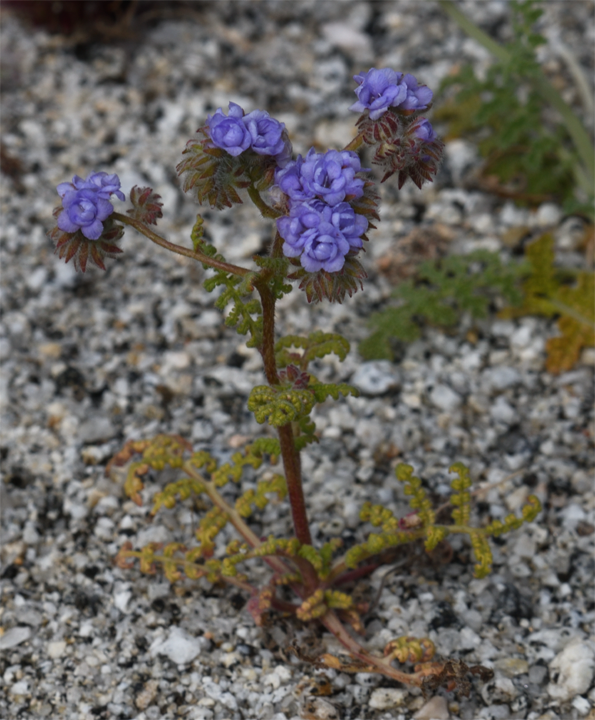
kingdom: Plantae
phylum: Tracheophyta
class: Magnoliopsida
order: Boraginales
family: Hydrophyllaceae
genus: Phacelia
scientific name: Phacelia distans
